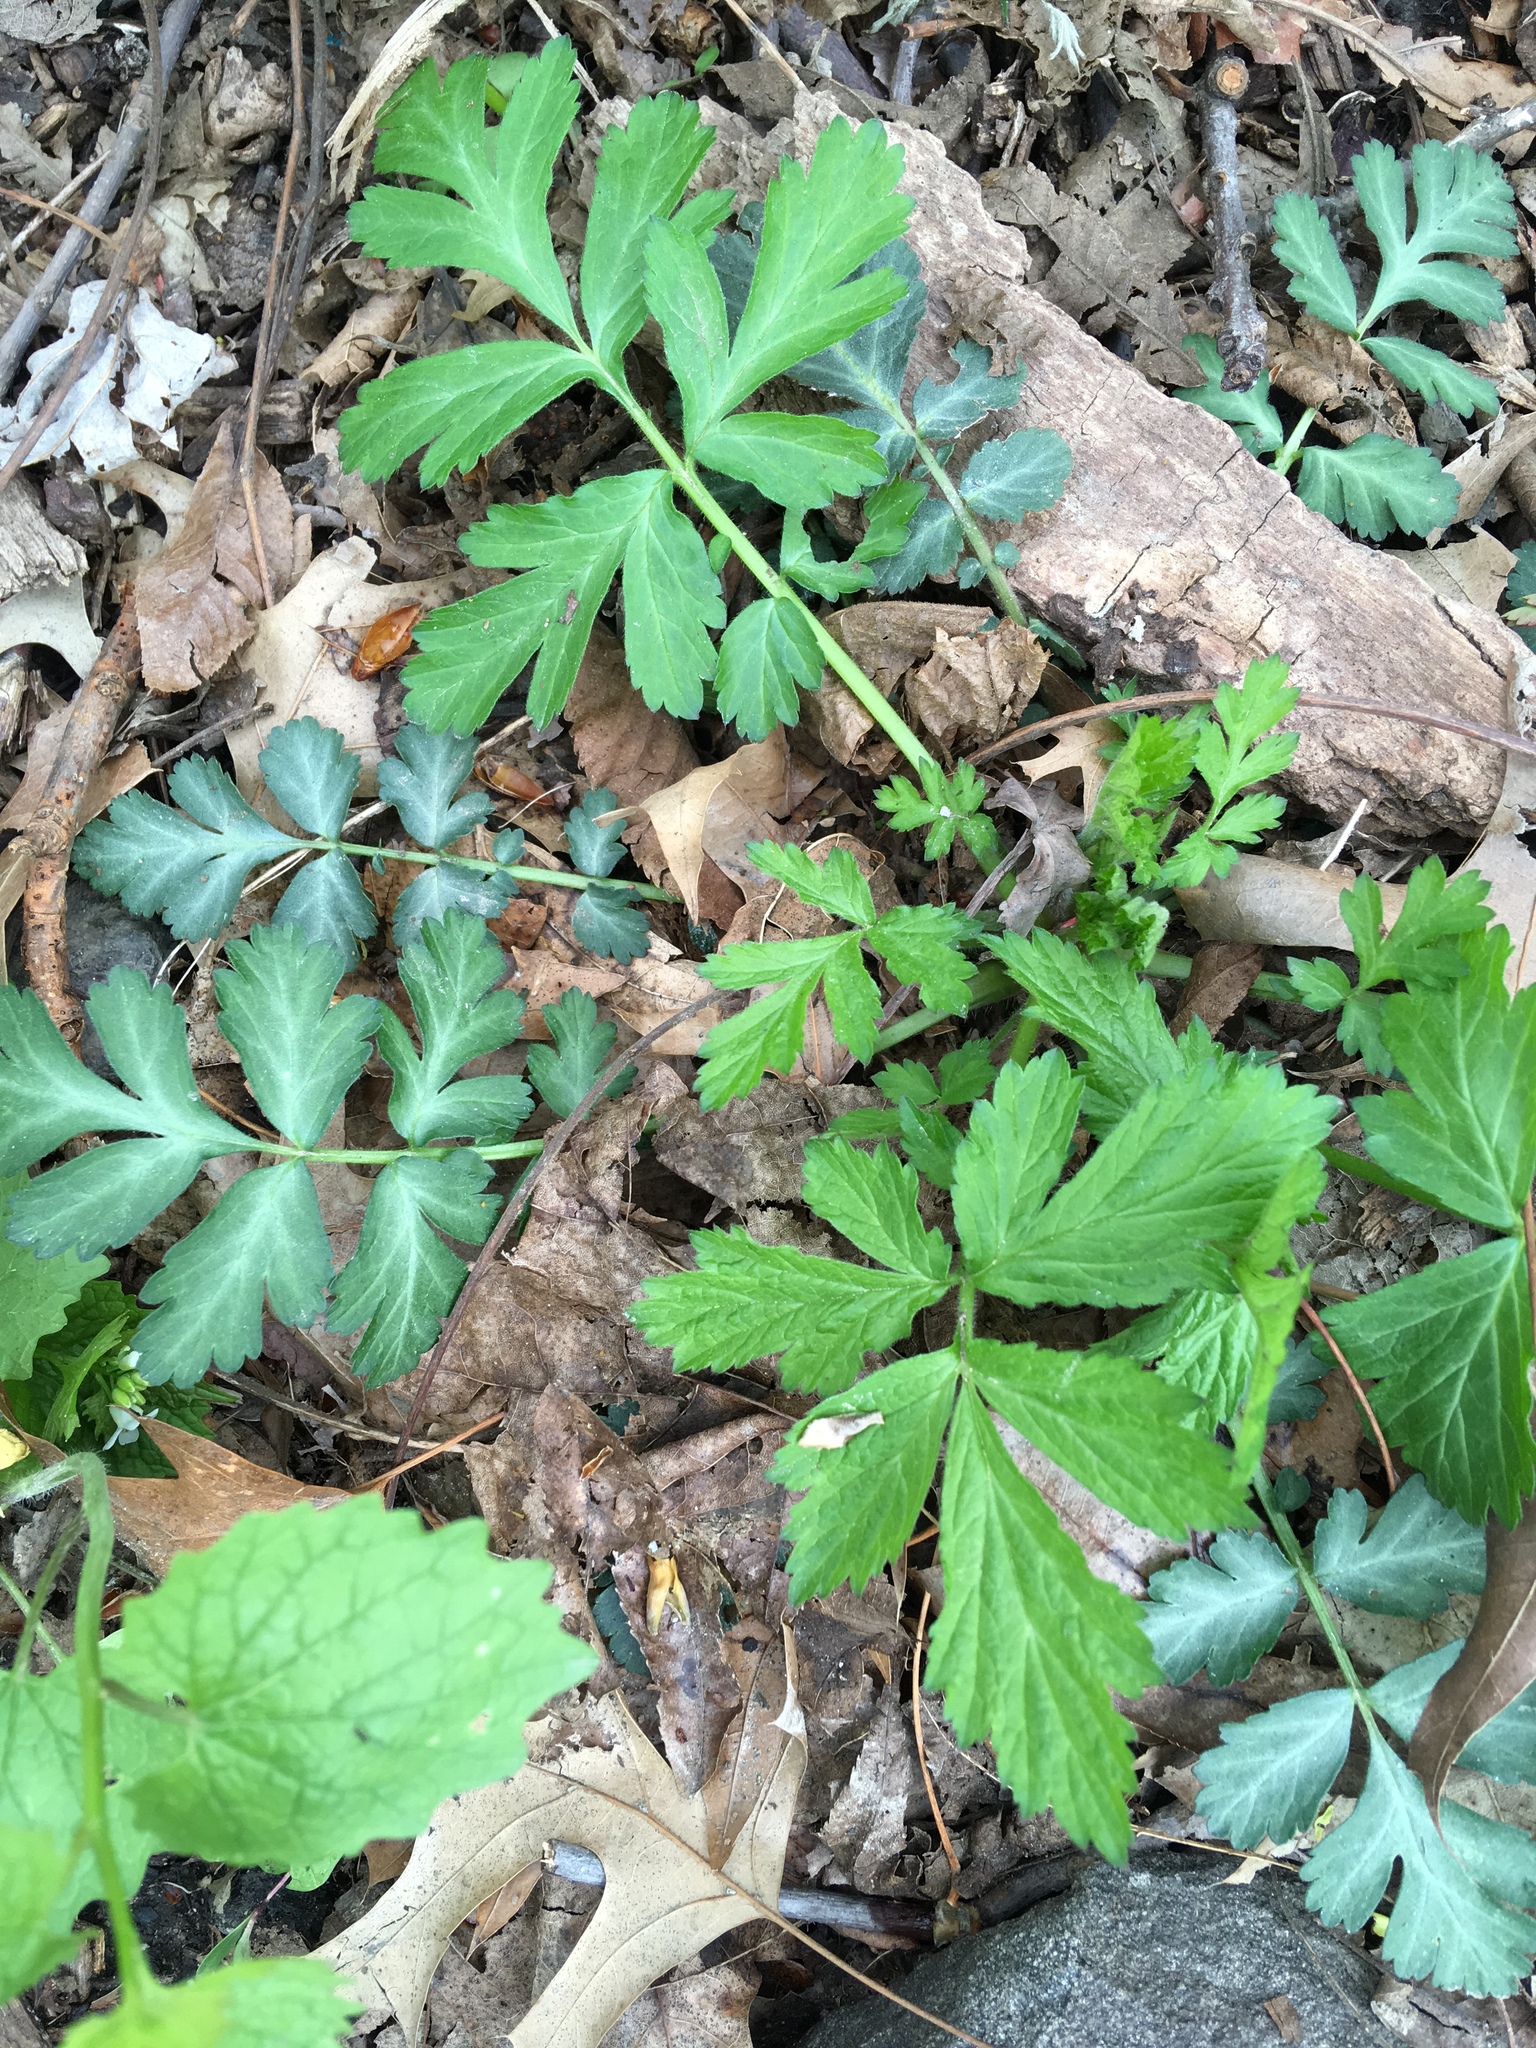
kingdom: Plantae
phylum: Tracheophyta
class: Magnoliopsida
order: Rosales
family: Rosaceae
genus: Geum
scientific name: Geum canadense
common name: White avens
